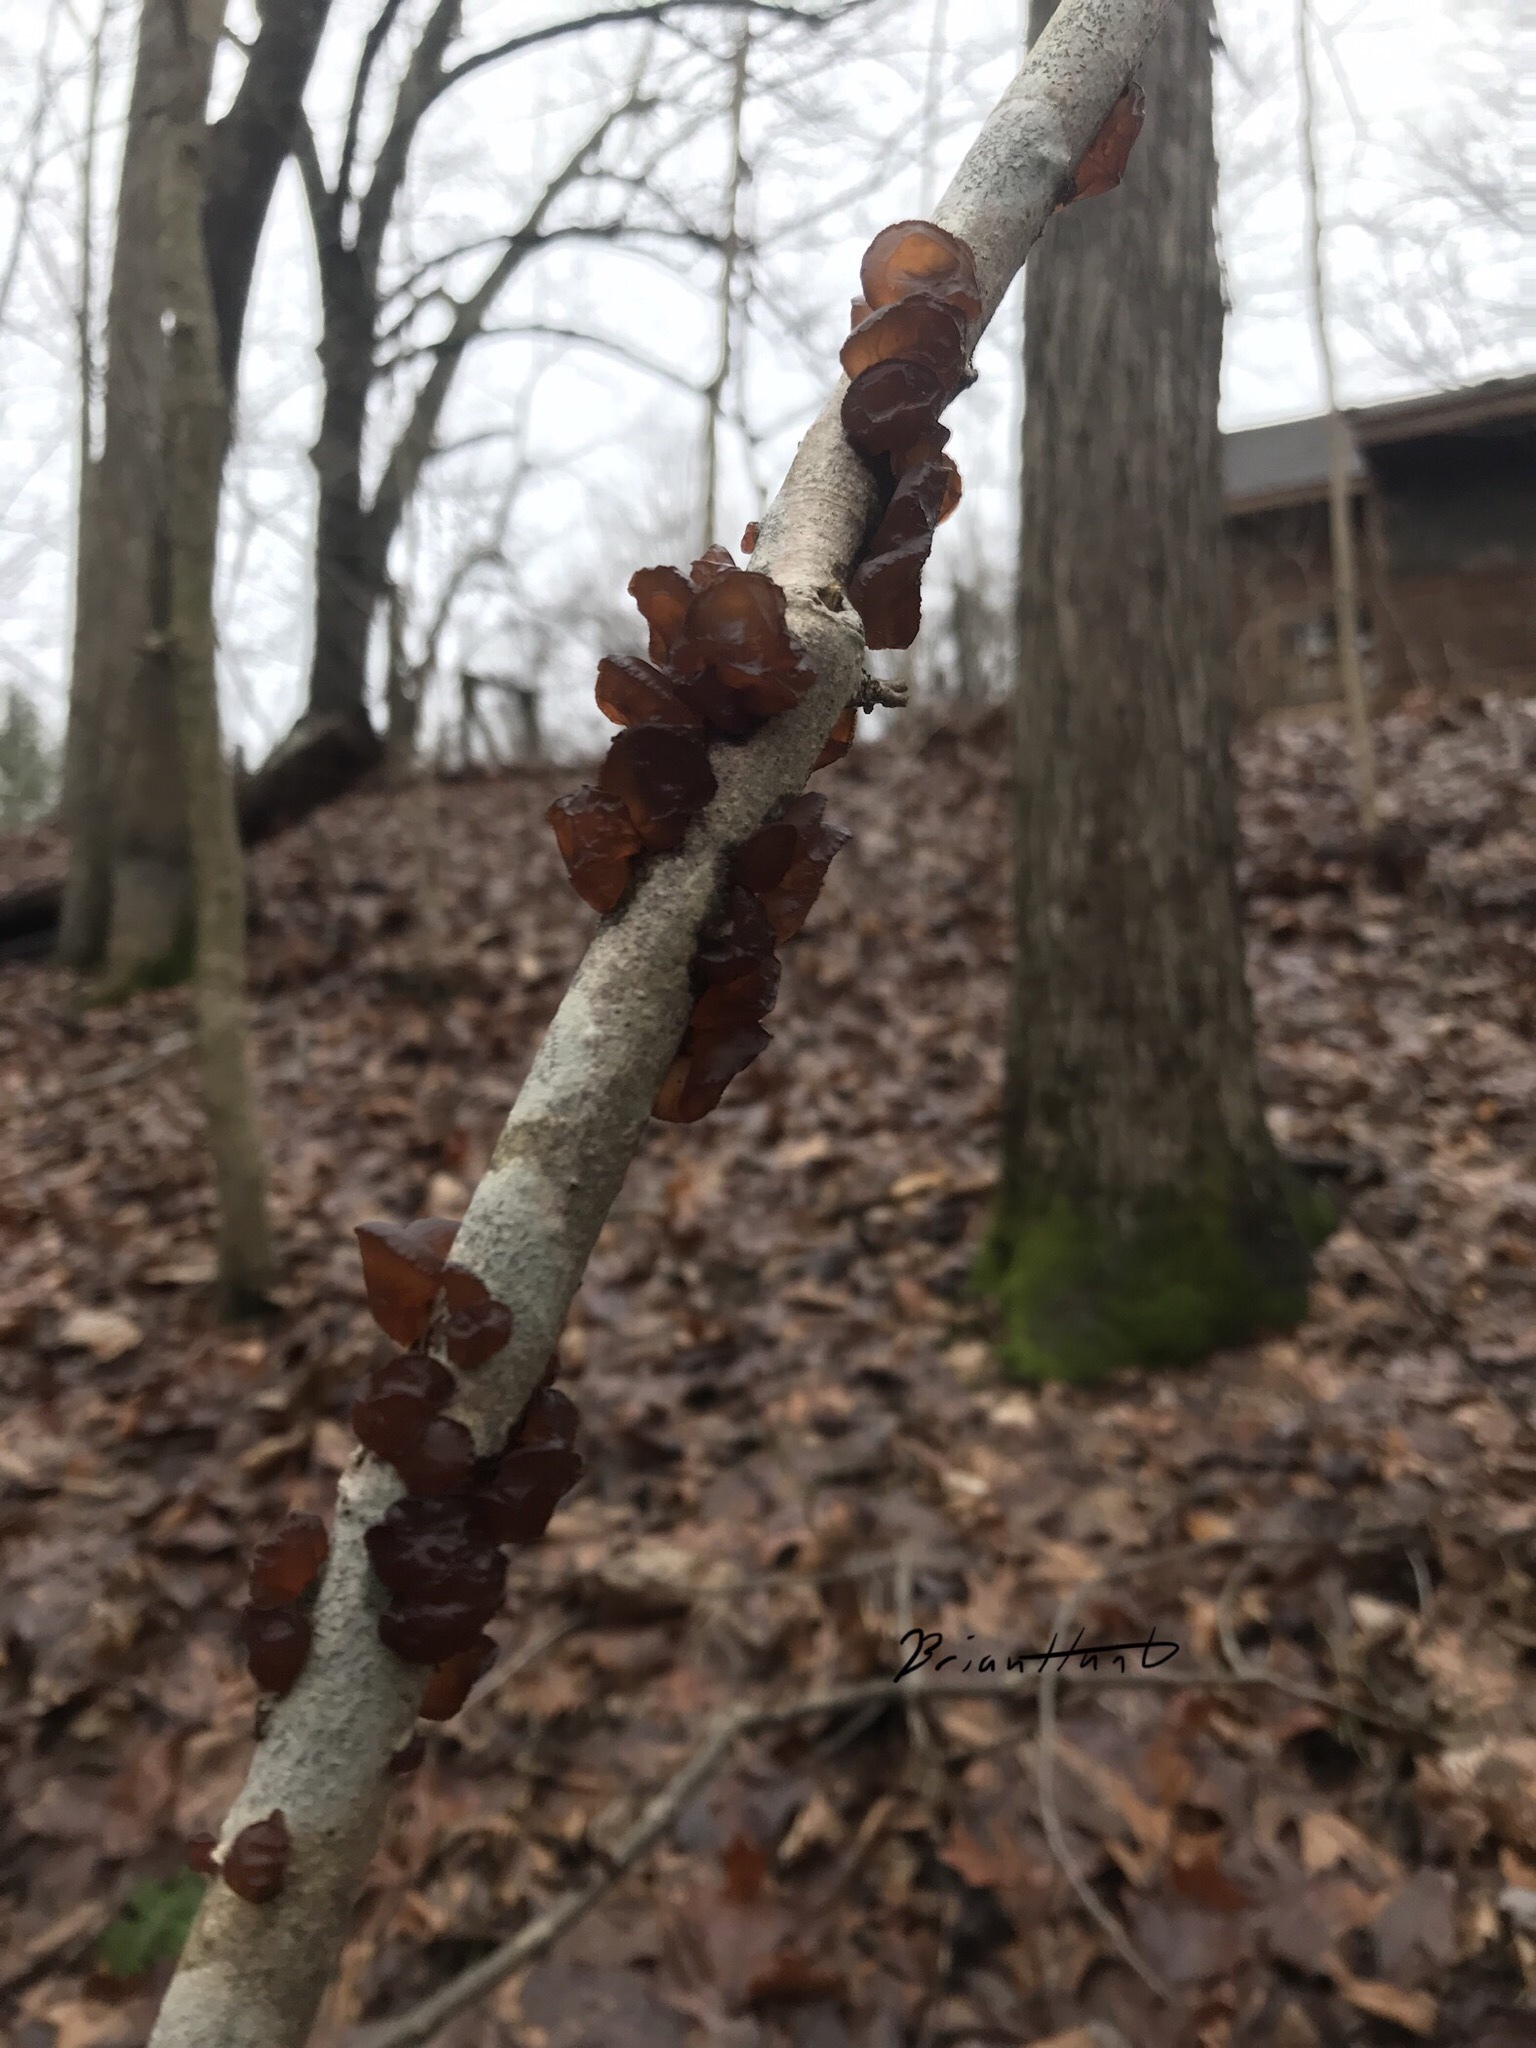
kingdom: Fungi
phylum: Basidiomycota
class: Agaricomycetes
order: Auriculariales
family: Auriculariaceae
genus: Exidia
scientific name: Exidia
